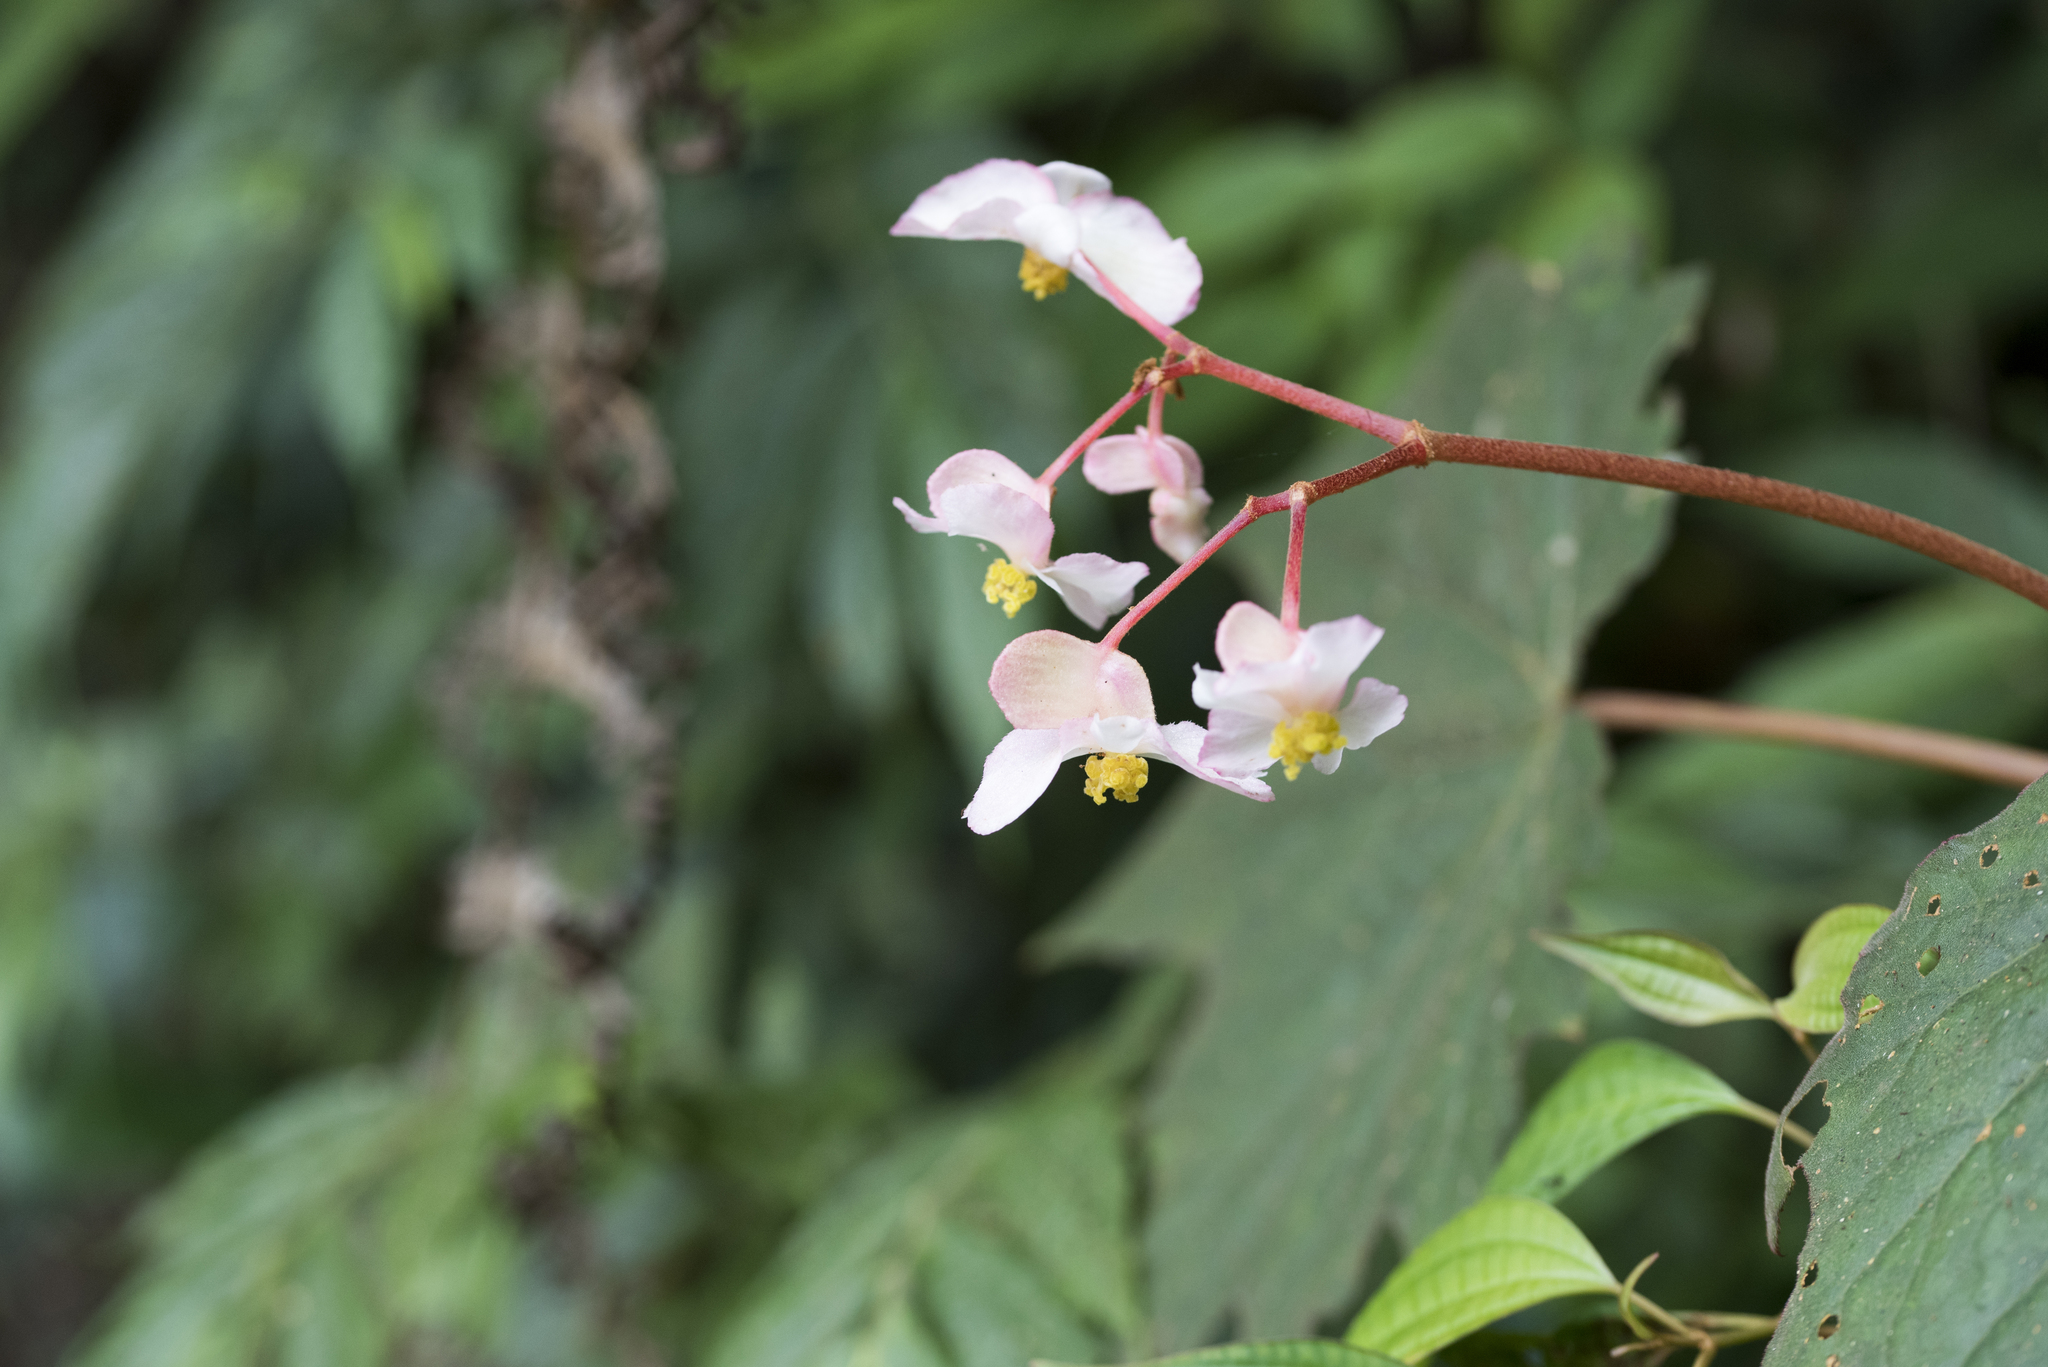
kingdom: Plantae
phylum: Tracheophyta
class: Magnoliopsida
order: Cucurbitales
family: Begoniaceae
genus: Begonia
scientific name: Begonia palmata
